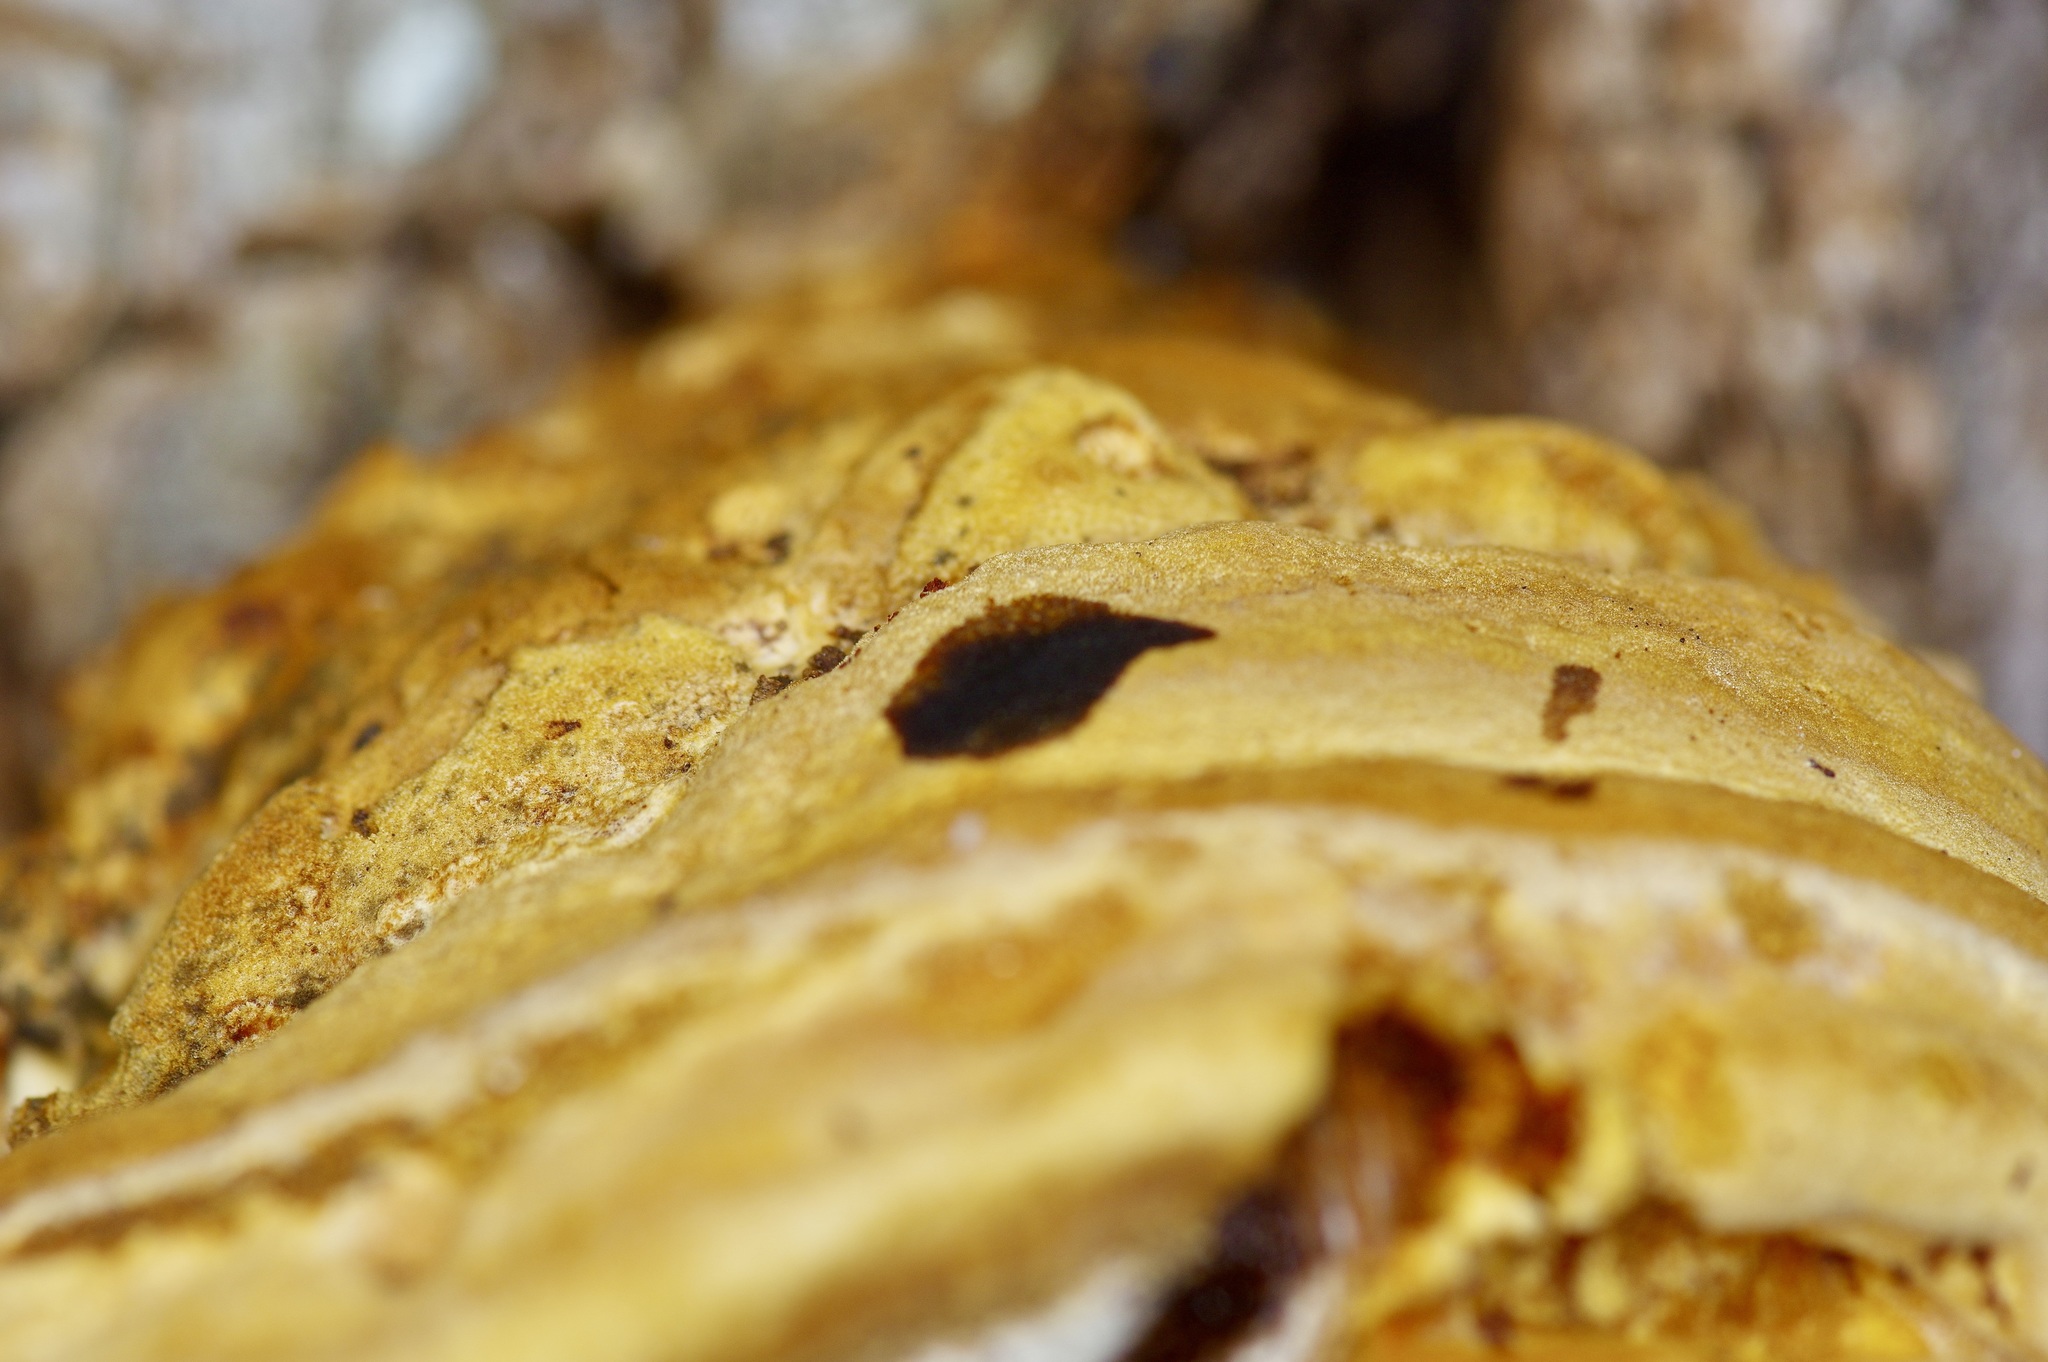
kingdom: Fungi
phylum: Basidiomycota
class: Agaricomycetes
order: Hymenochaetales
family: Hymenochaetaceae
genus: Inocutis
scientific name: Inocutis texana
